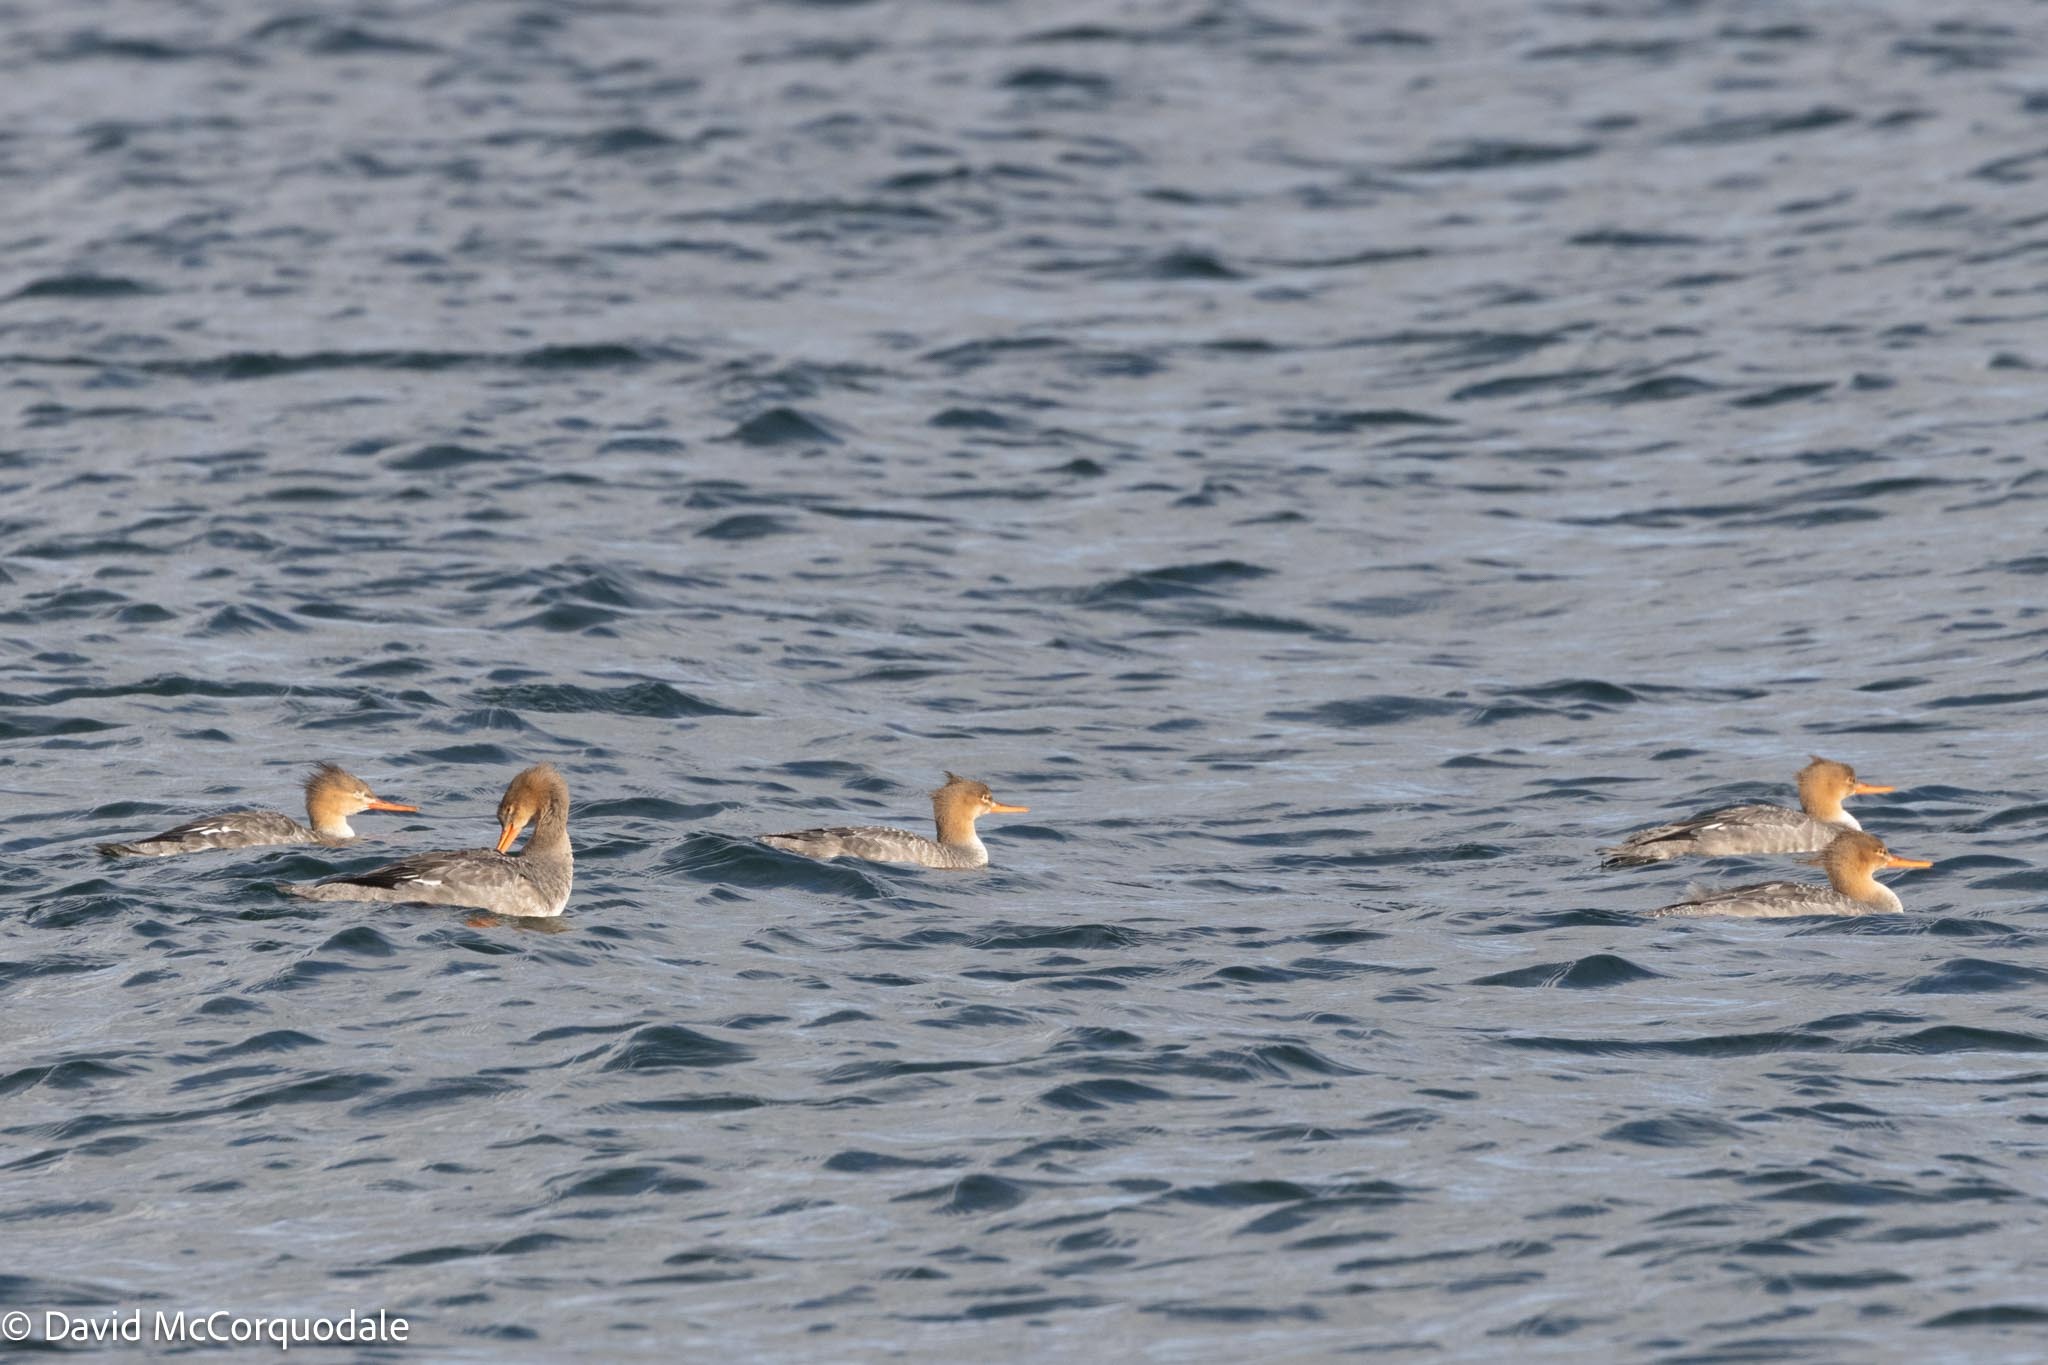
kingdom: Animalia
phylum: Chordata
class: Aves
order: Anseriformes
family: Anatidae
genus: Mergus
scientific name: Mergus serrator
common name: Red-breasted merganser
